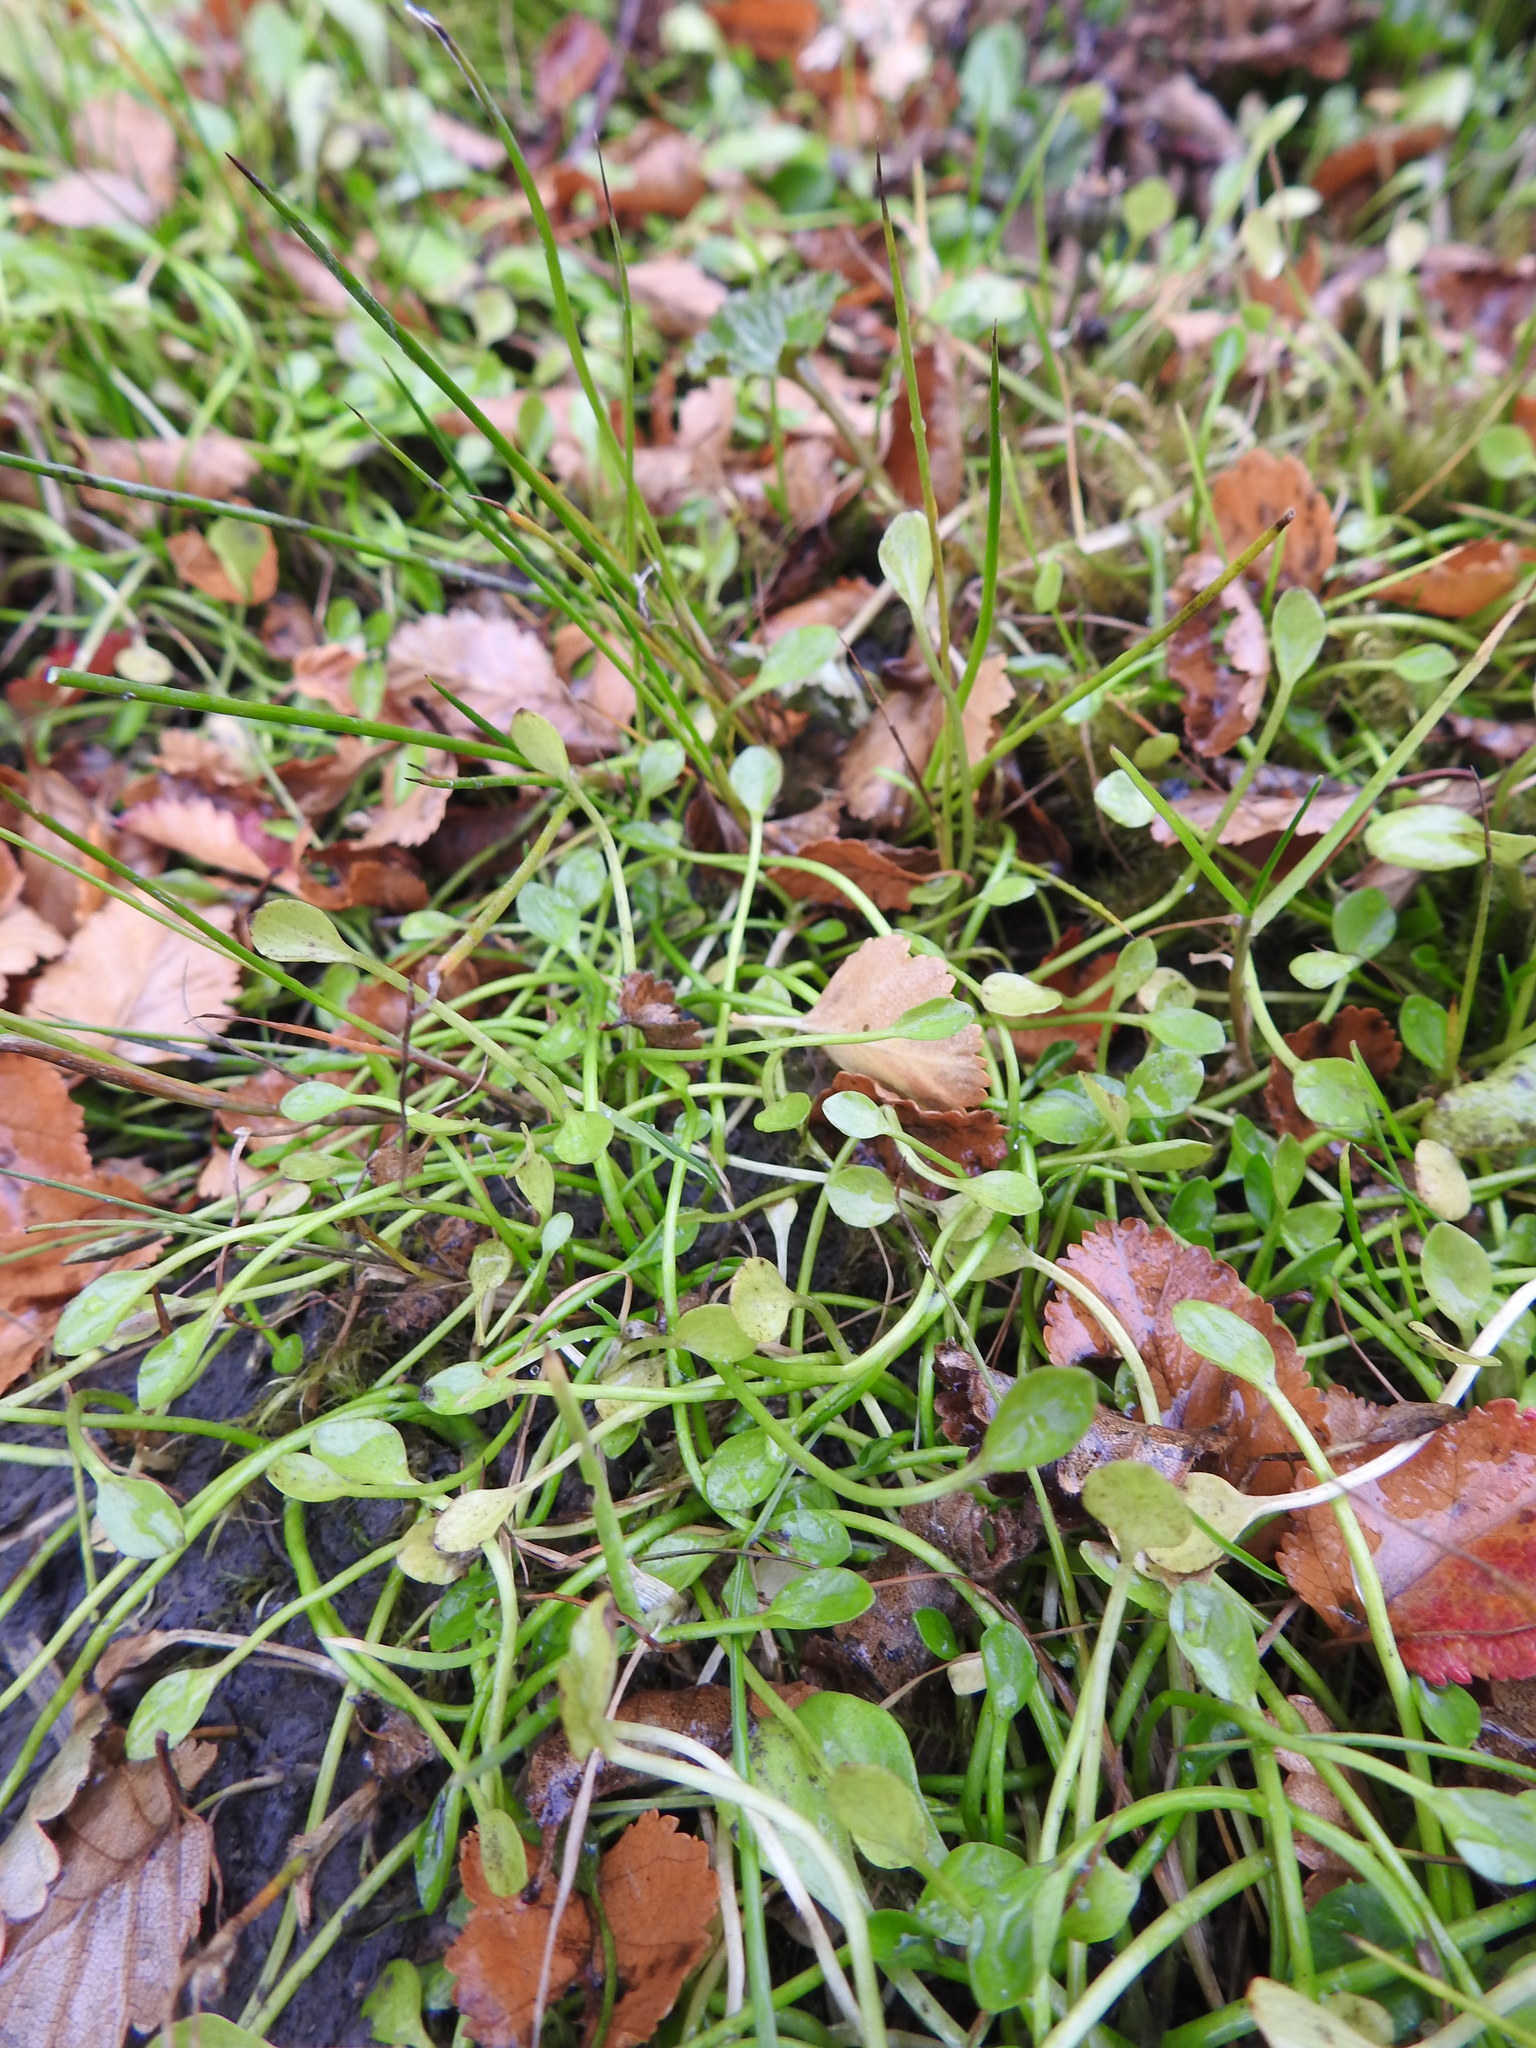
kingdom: Plantae
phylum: Tracheophyta
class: Magnoliopsida
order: Ranunculales
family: Ranunculaceae
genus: Ranunculus
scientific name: Ranunculus hydrophilus
